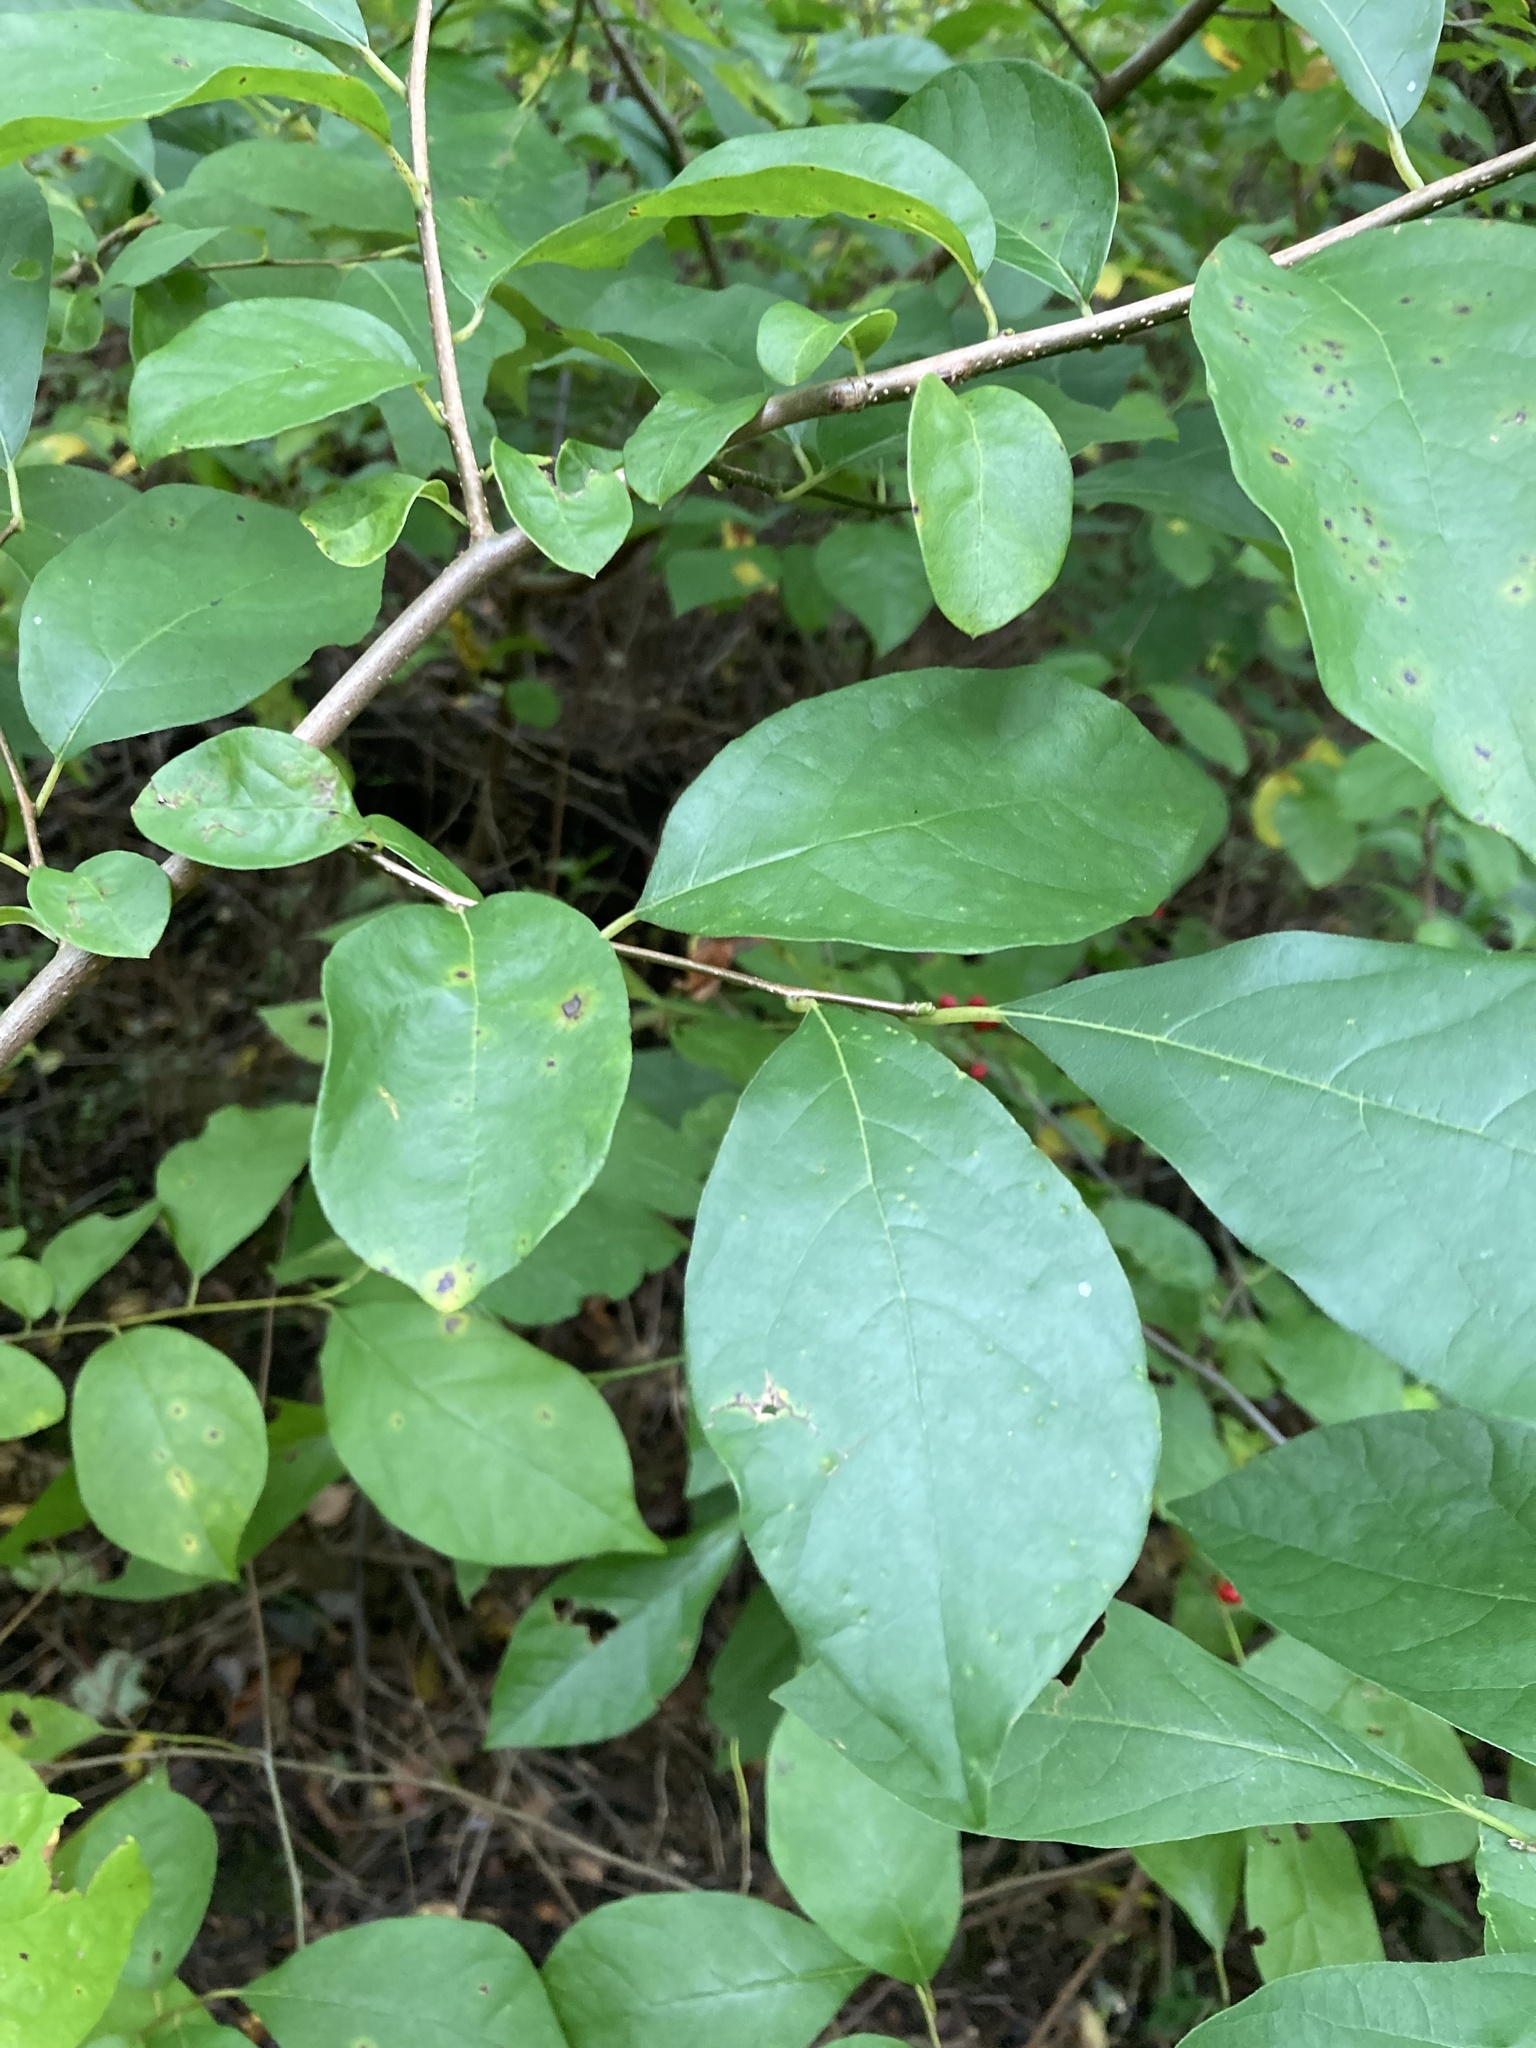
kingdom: Plantae
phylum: Tracheophyta
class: Magnoliopsida
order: Laurales
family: Lauraceae
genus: Lindera
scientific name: Lindera benzoin
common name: Spicebush
